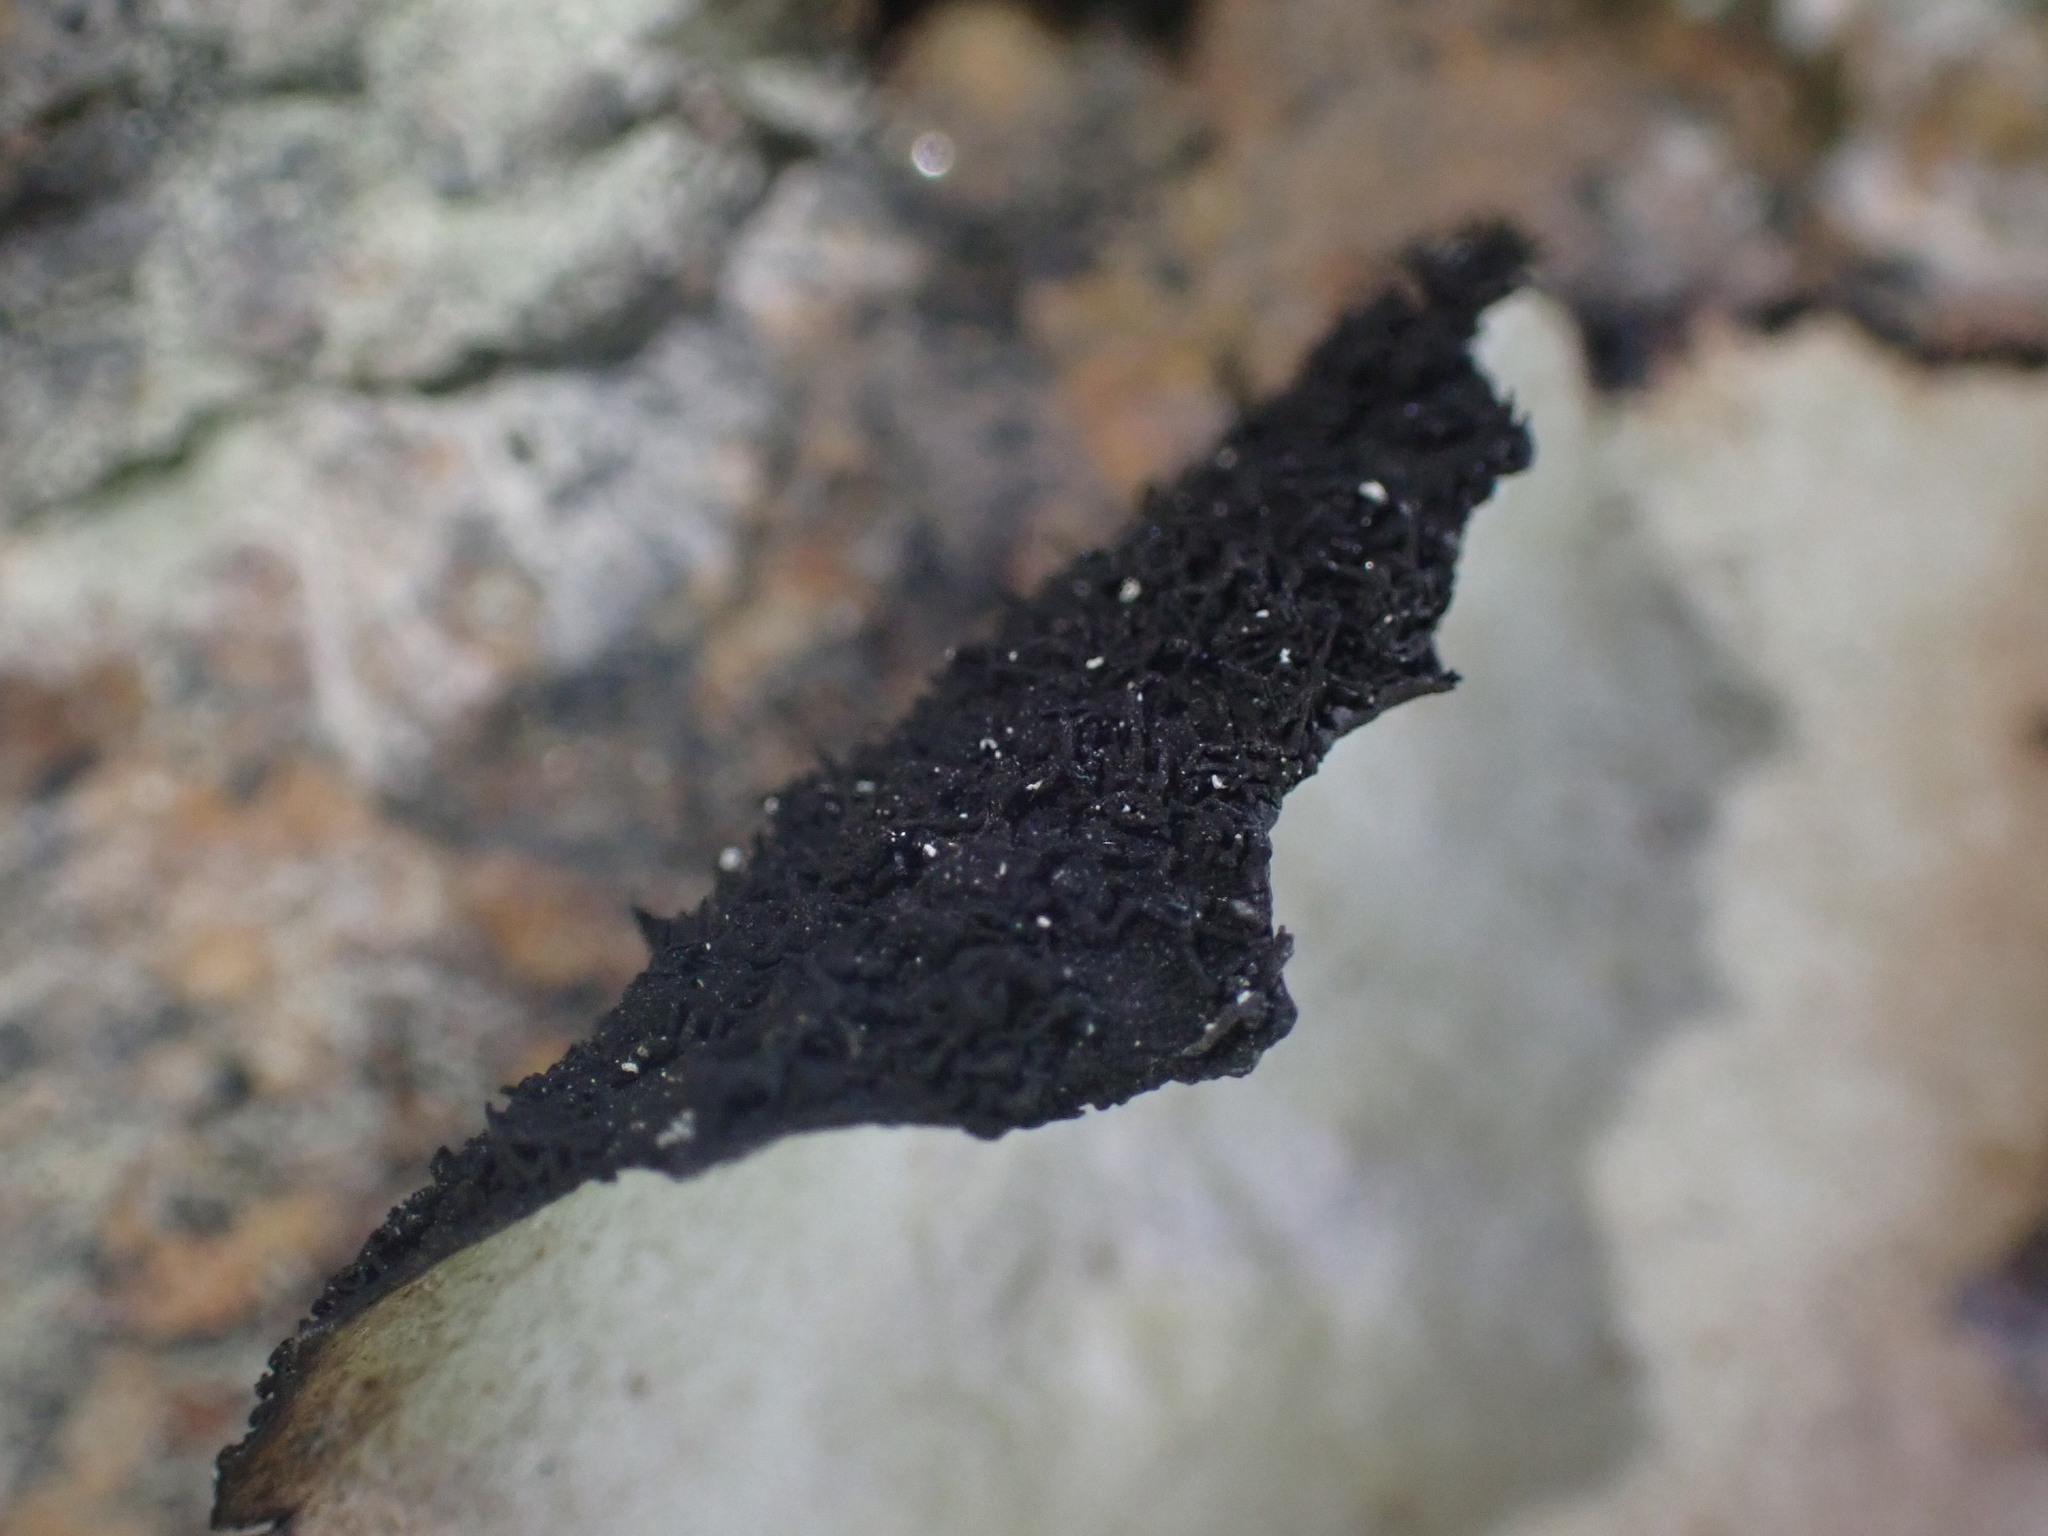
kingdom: Fungi
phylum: Ascomycota
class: Lecanoromycetes
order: Umbilicariales
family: Umbilicariaceae
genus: Umbilicaria
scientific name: Umbilicaria americana
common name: Frosted rock tripe
